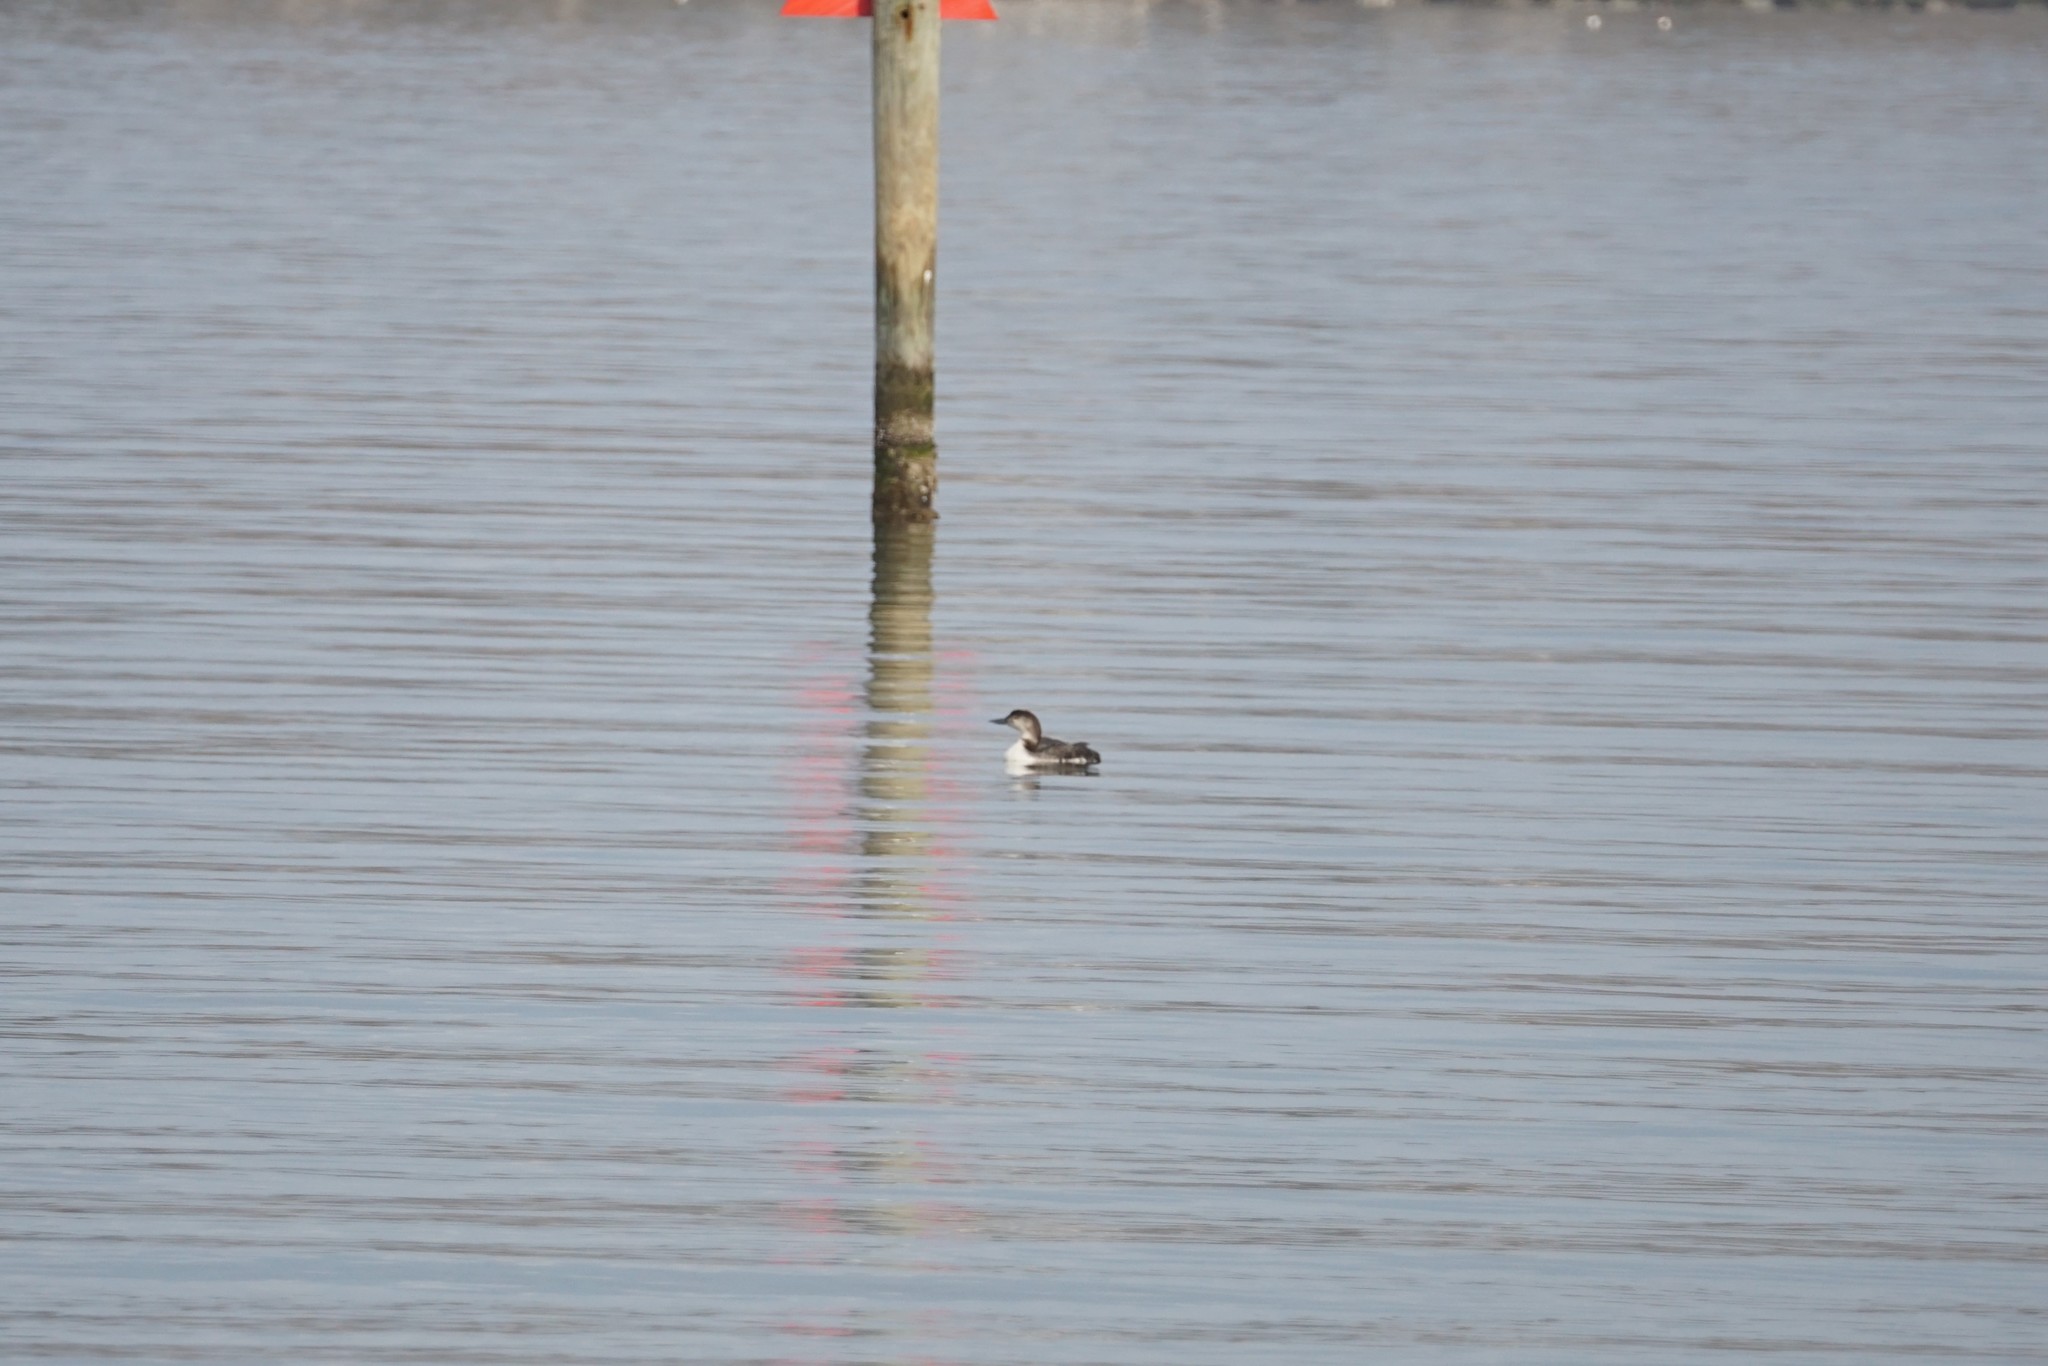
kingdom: Animalia
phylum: Chordata
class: Aves
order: Gaviiformes
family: Gaviidae
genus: Gavia
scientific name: Gavia immer
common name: Common loon
